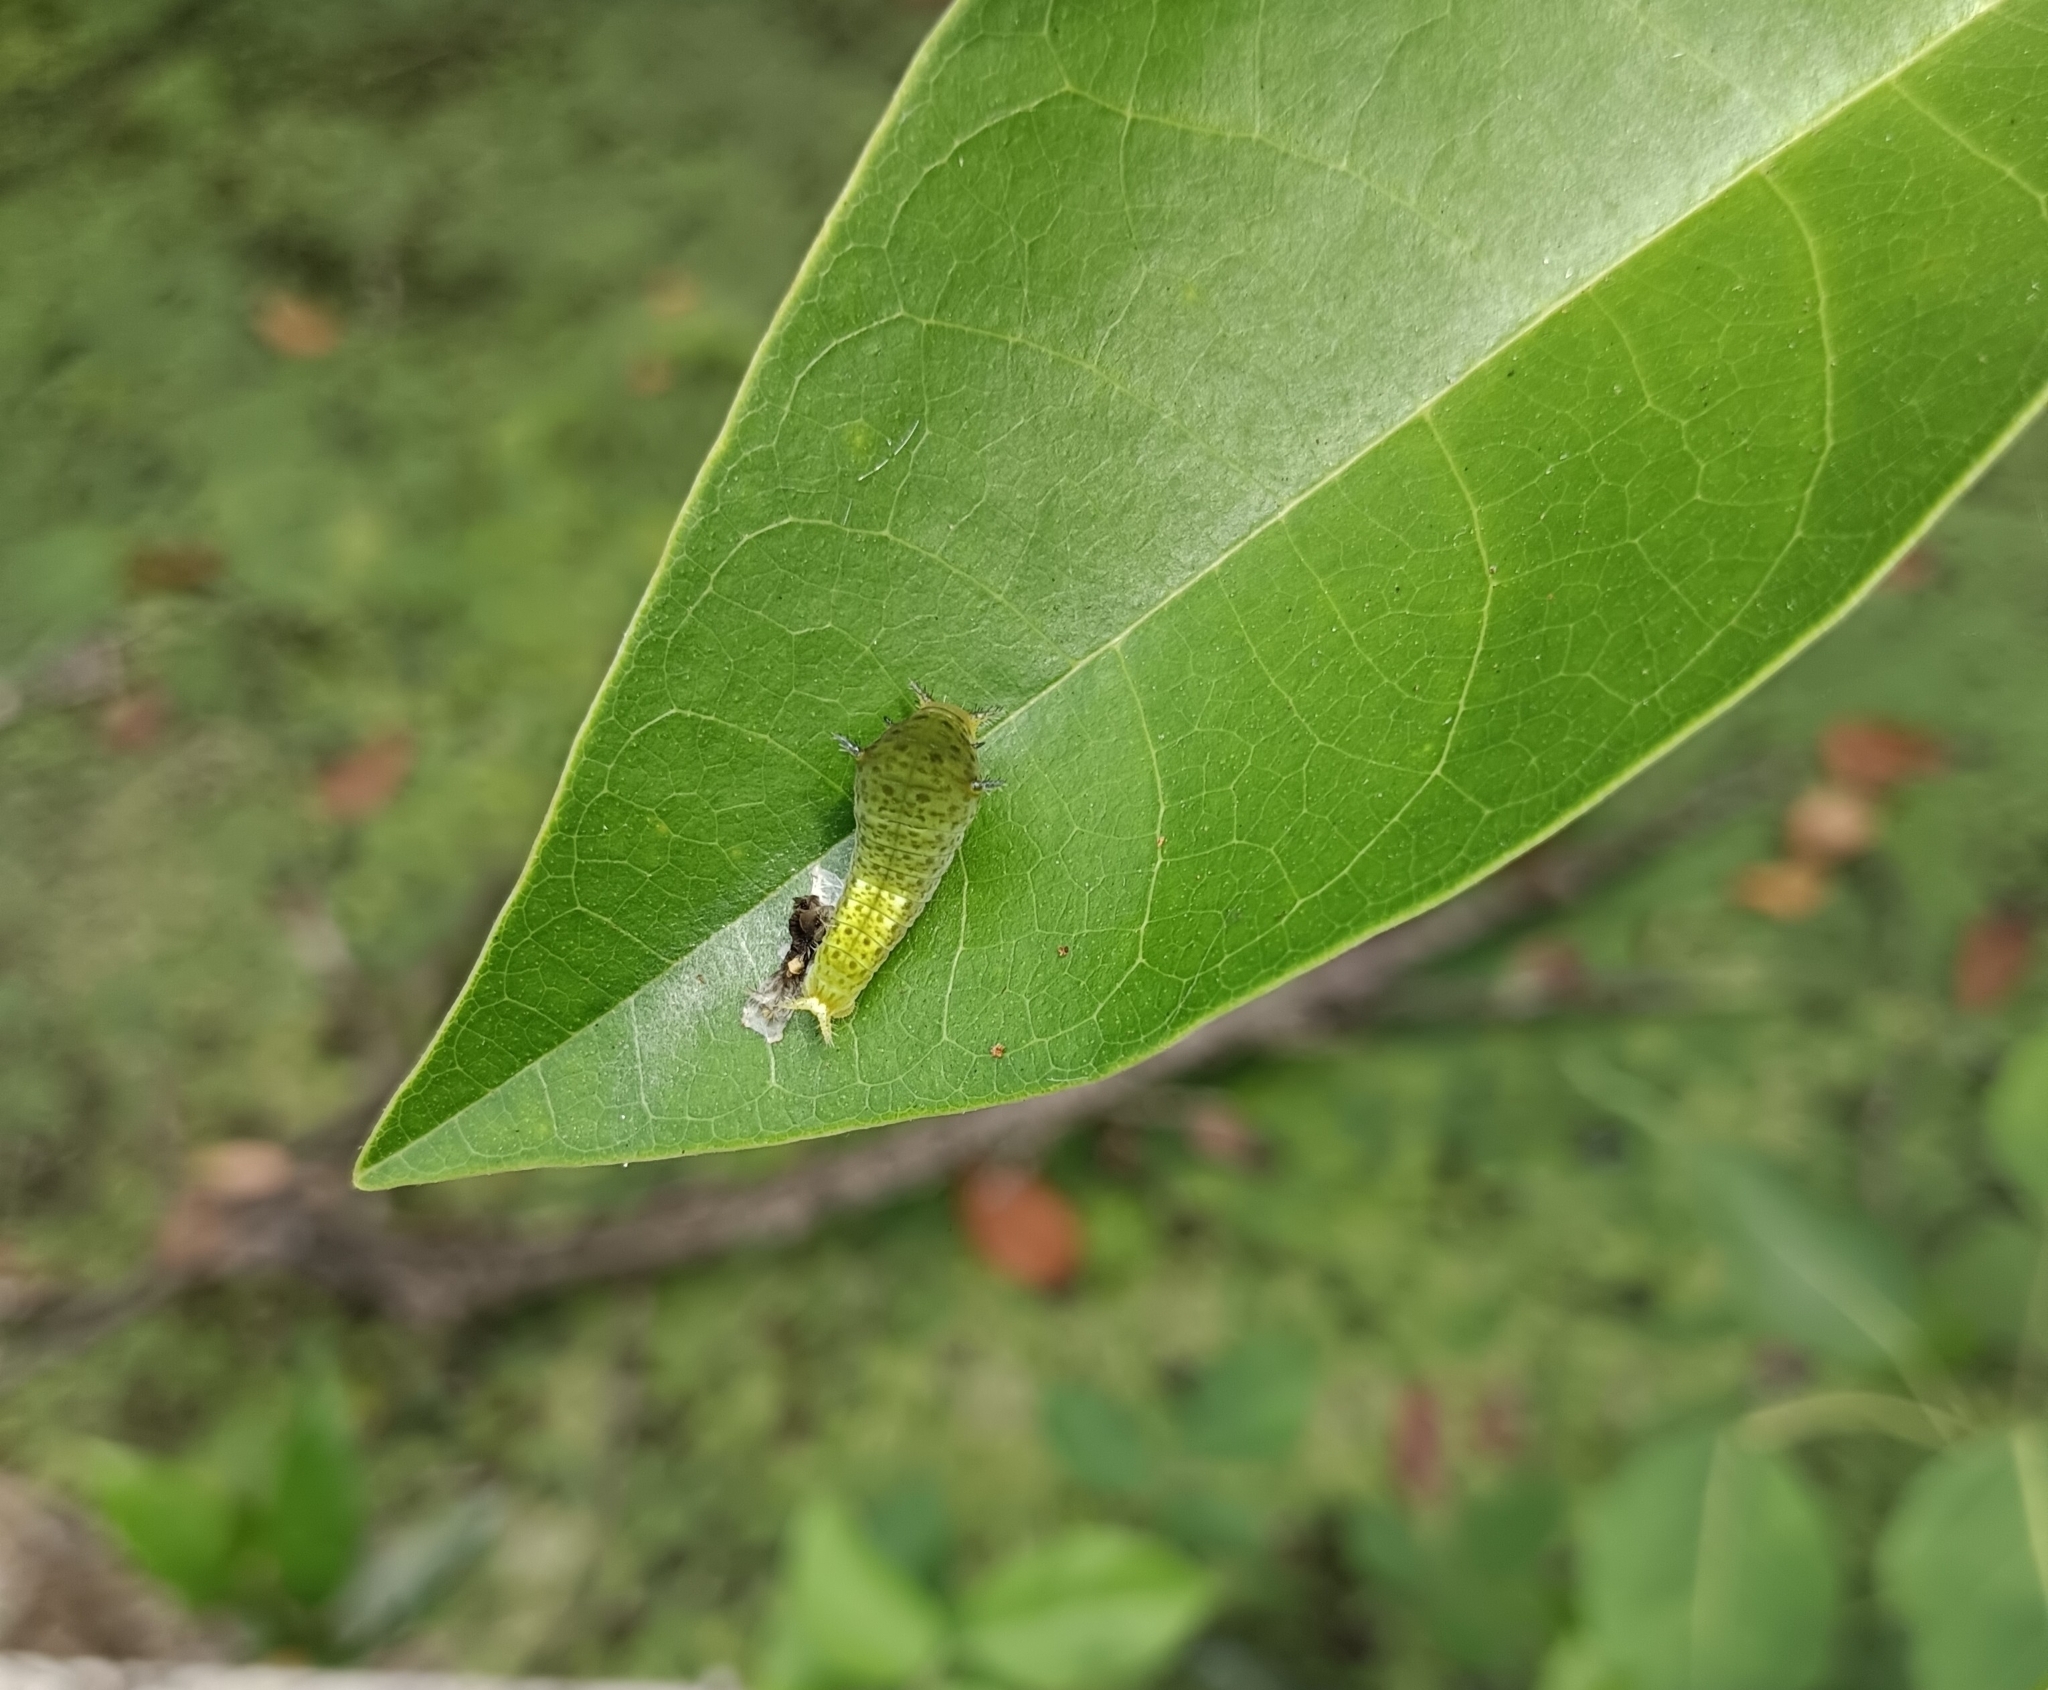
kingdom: Animalia
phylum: Arthropoda
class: Insecta
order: Lepidoptera
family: Papilionidae
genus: Graphium
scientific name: Graphium agamemnon
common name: Tailed jay
